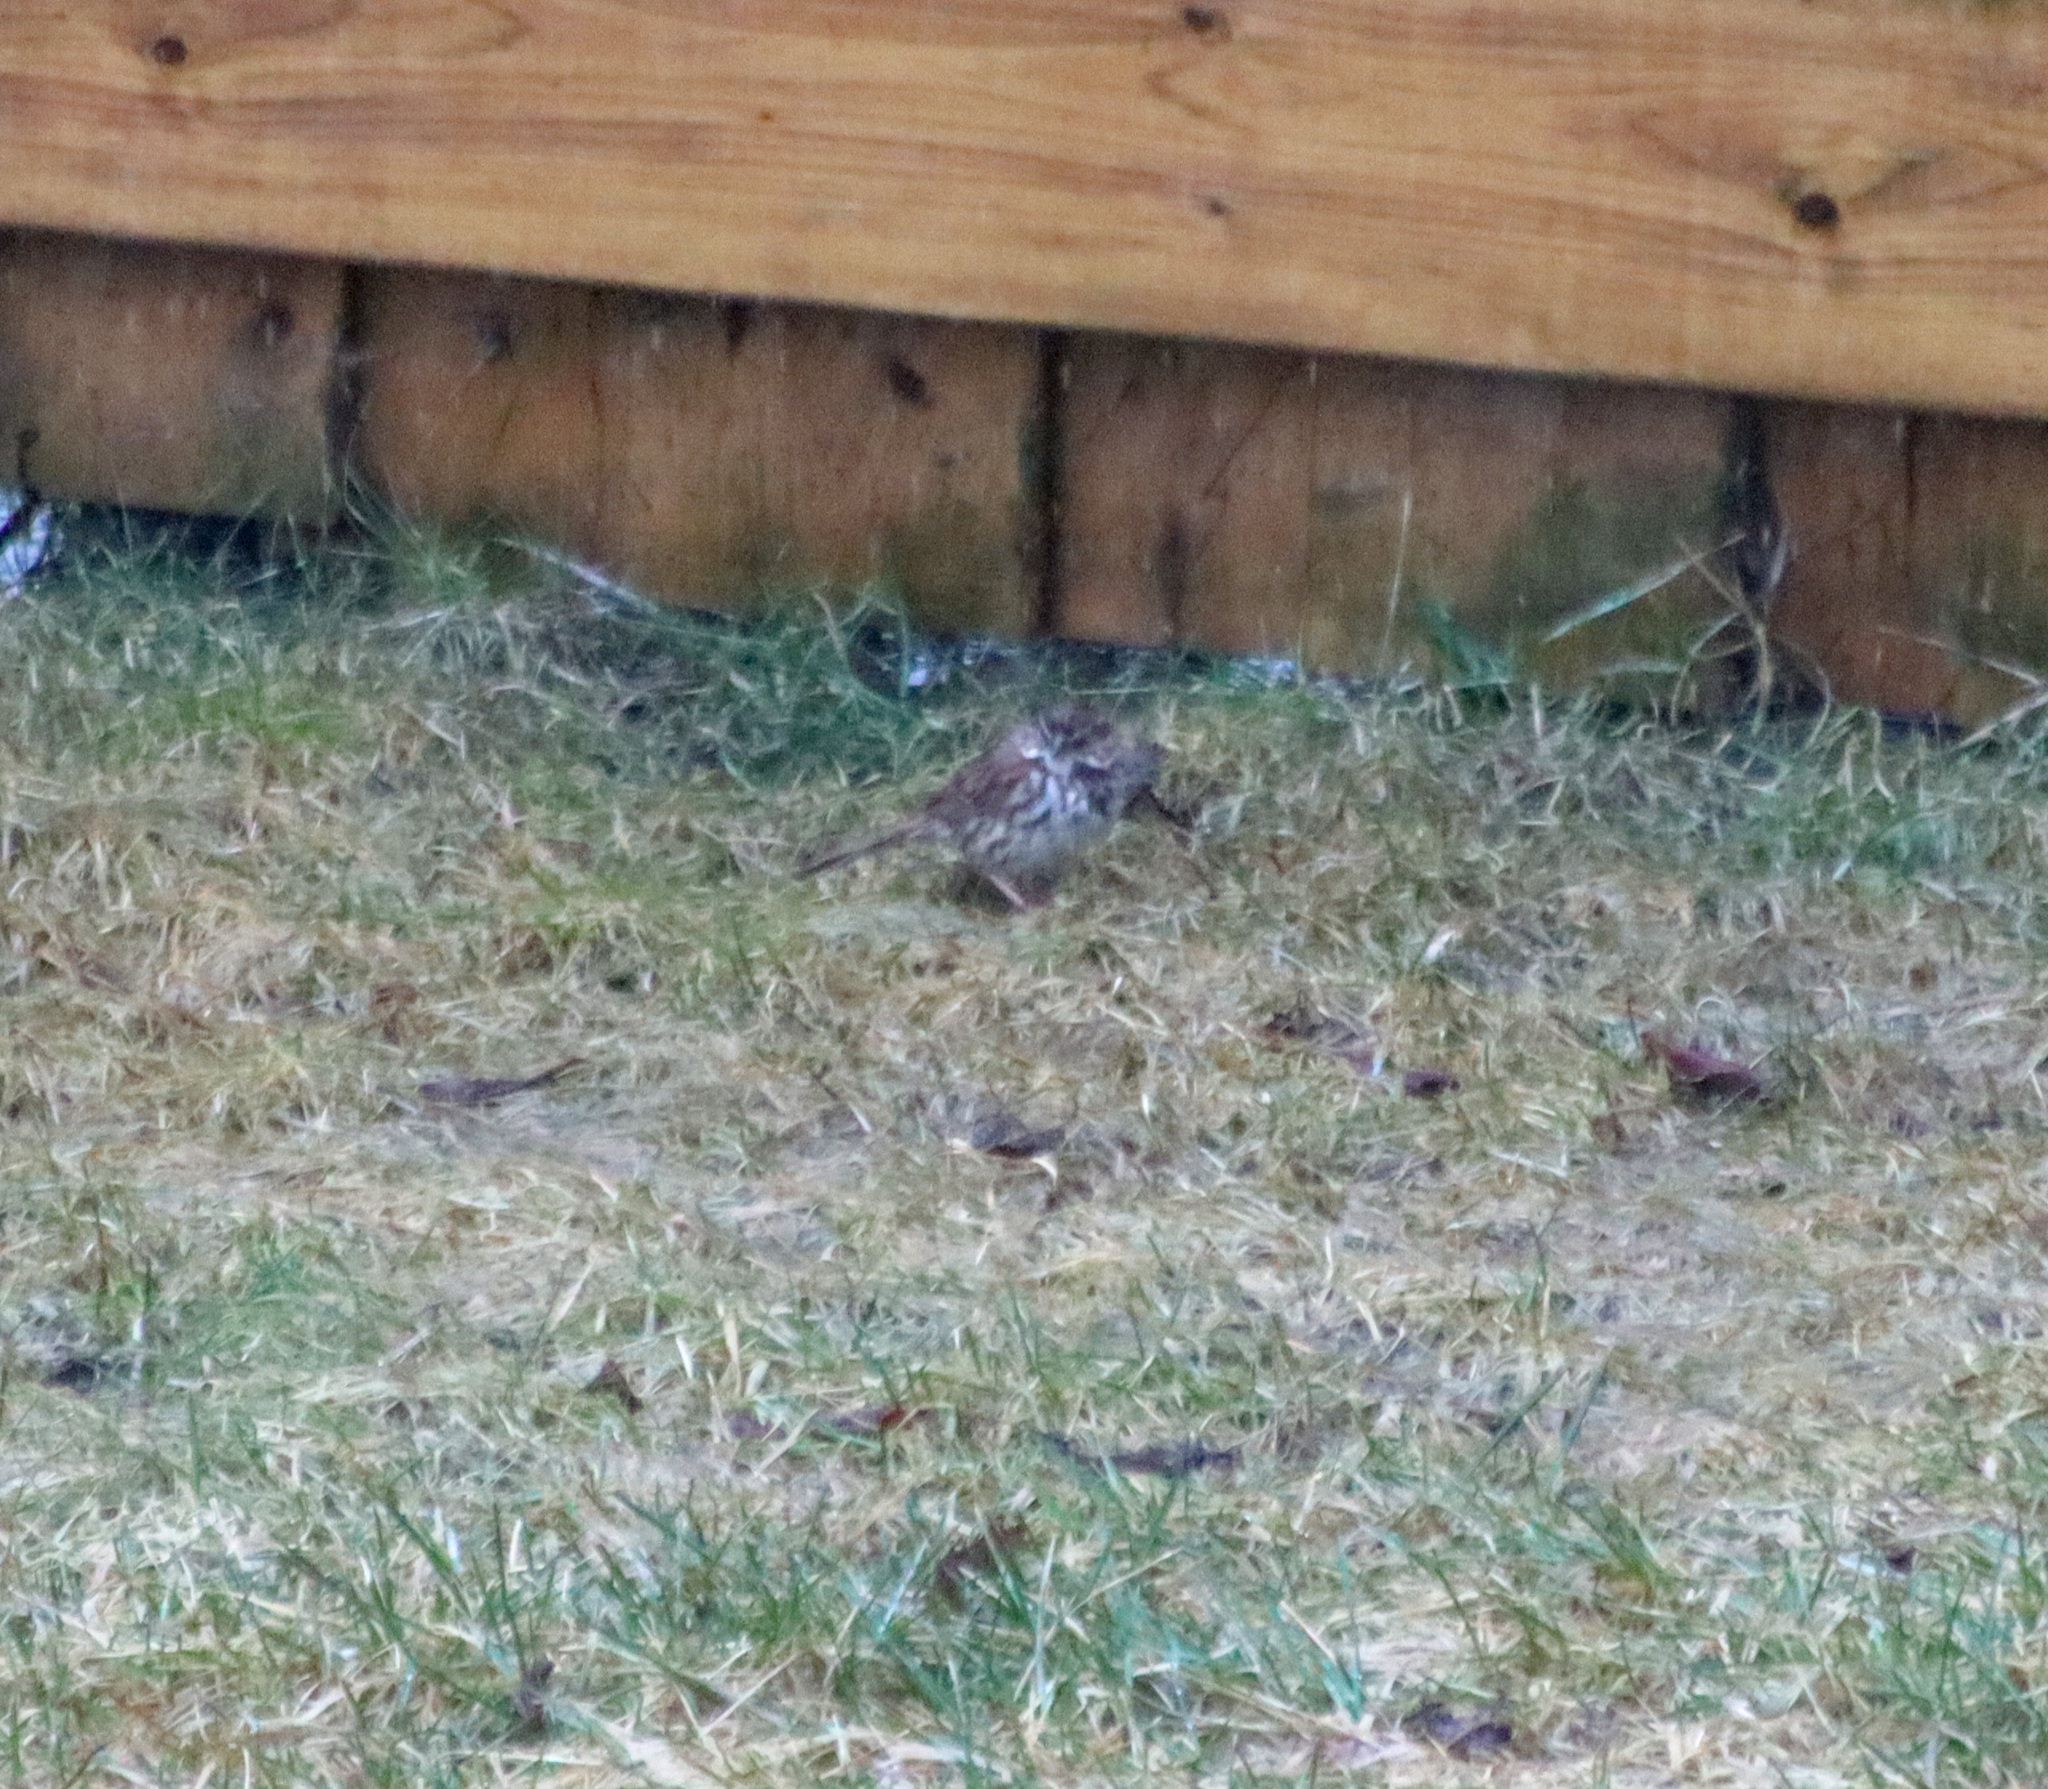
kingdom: Animalia
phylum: Chordata
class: Aves
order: Passeriformes
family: Passerellidae
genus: Melospiza
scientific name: Melospiza melodia
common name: Song sparrow
